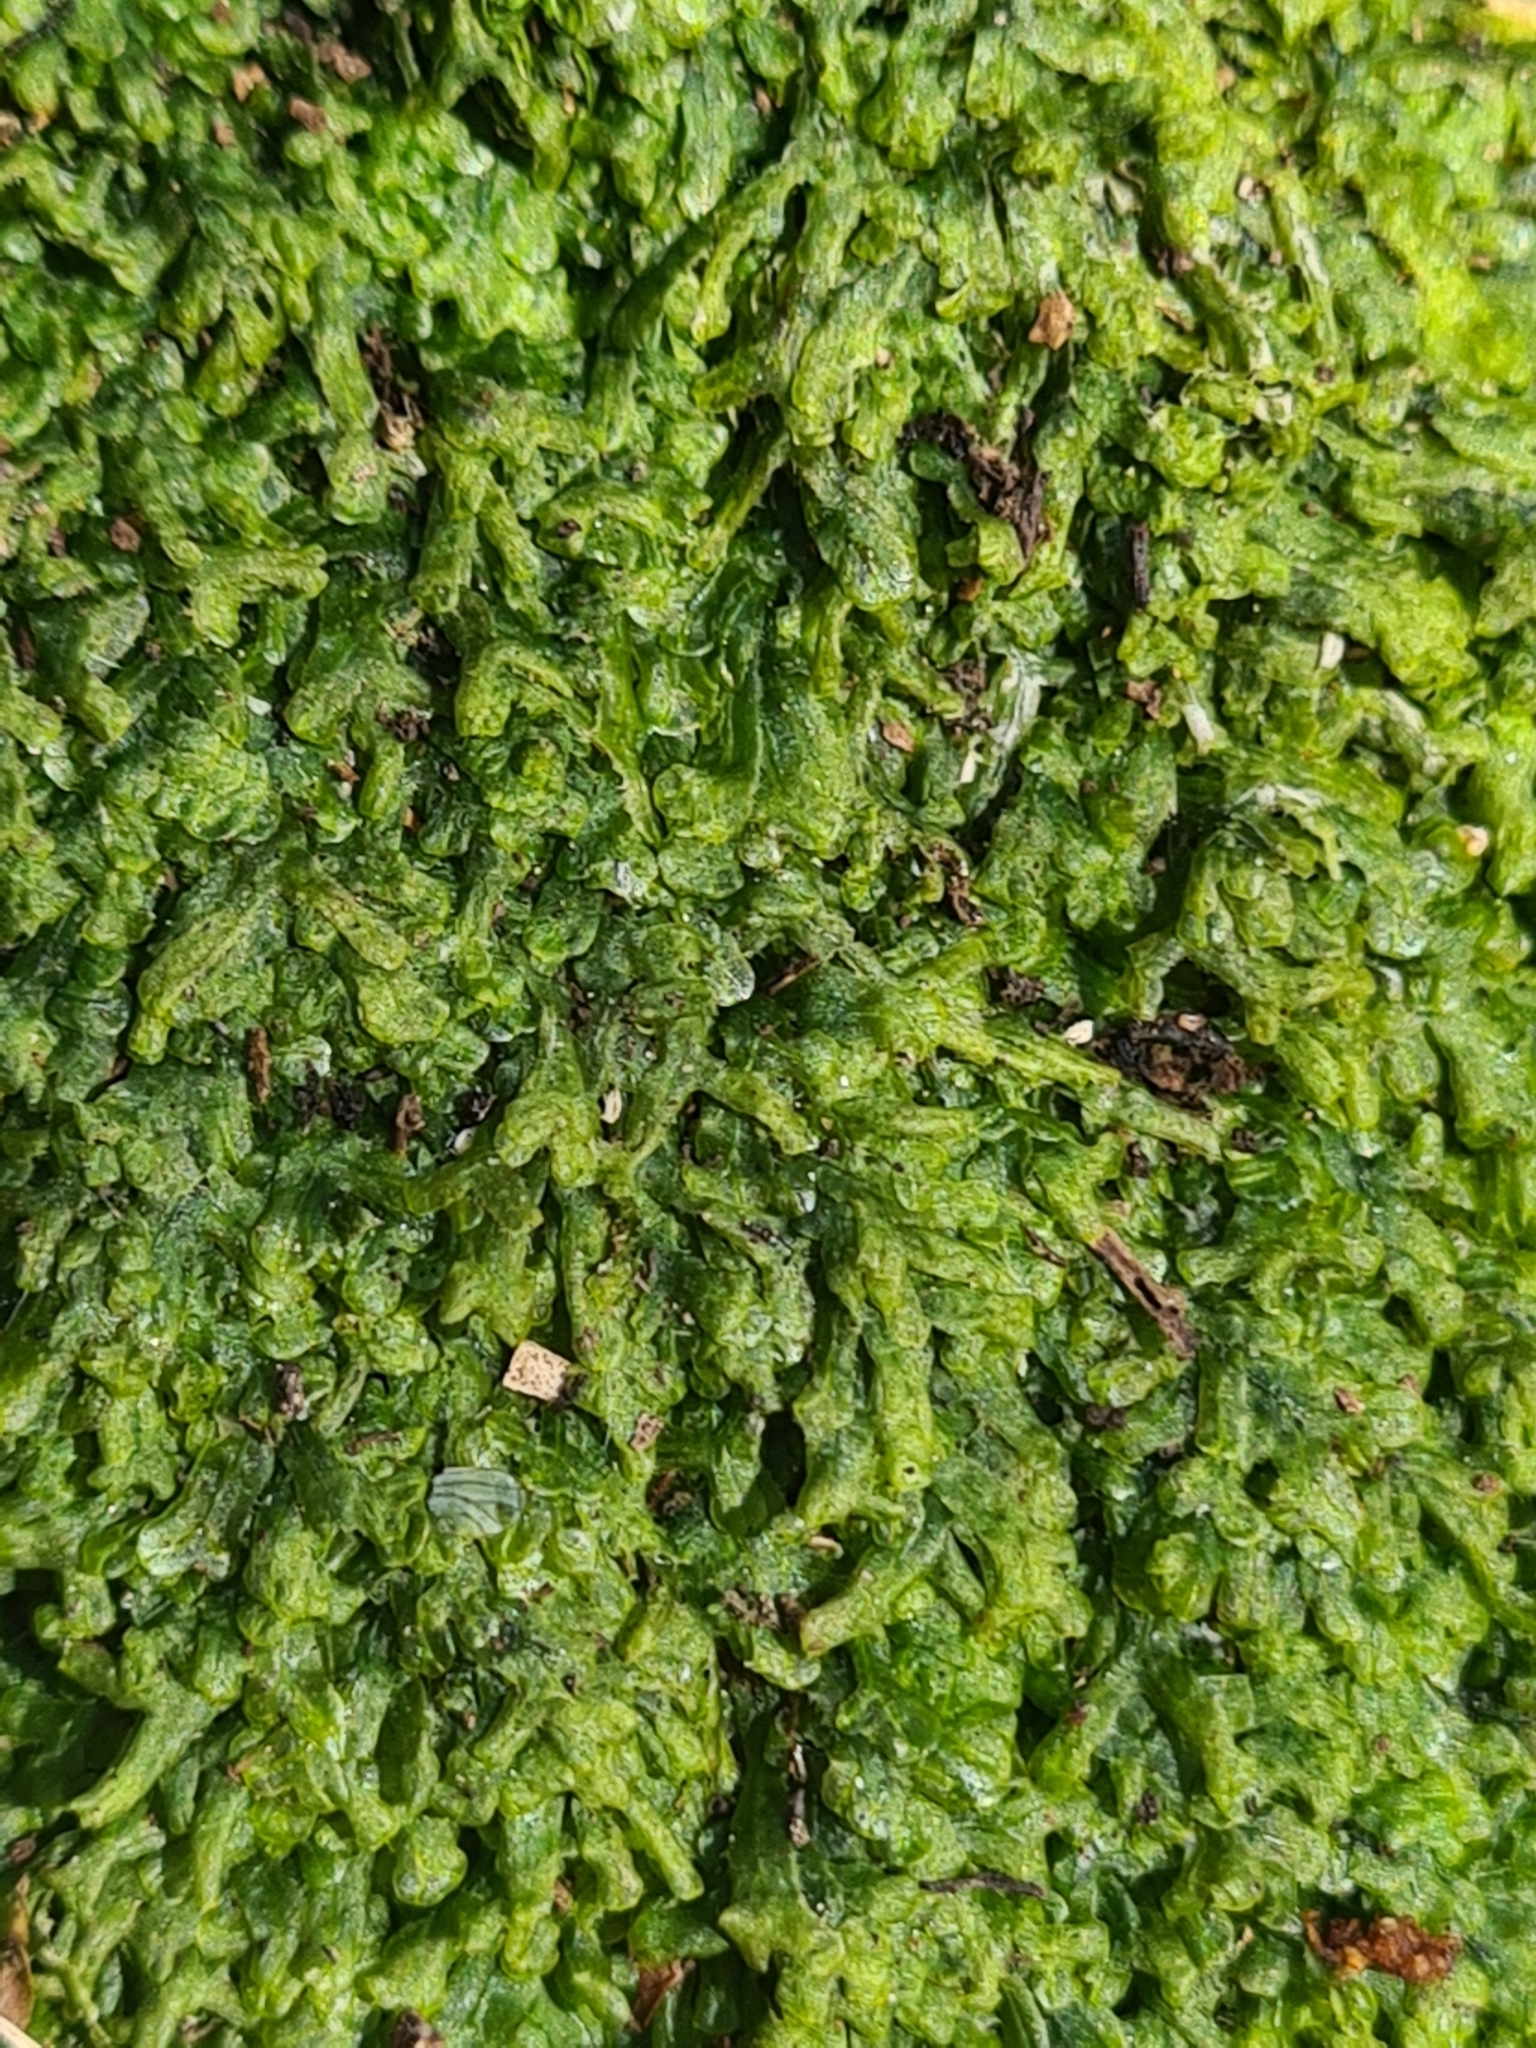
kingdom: Plantae
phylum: Marchantiophyta
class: Jungermanniopsida
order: Metzgeriales
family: Metzgeriaceae
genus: Metzgeria
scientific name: Metzgeria conjugata
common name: Rock veilwort
